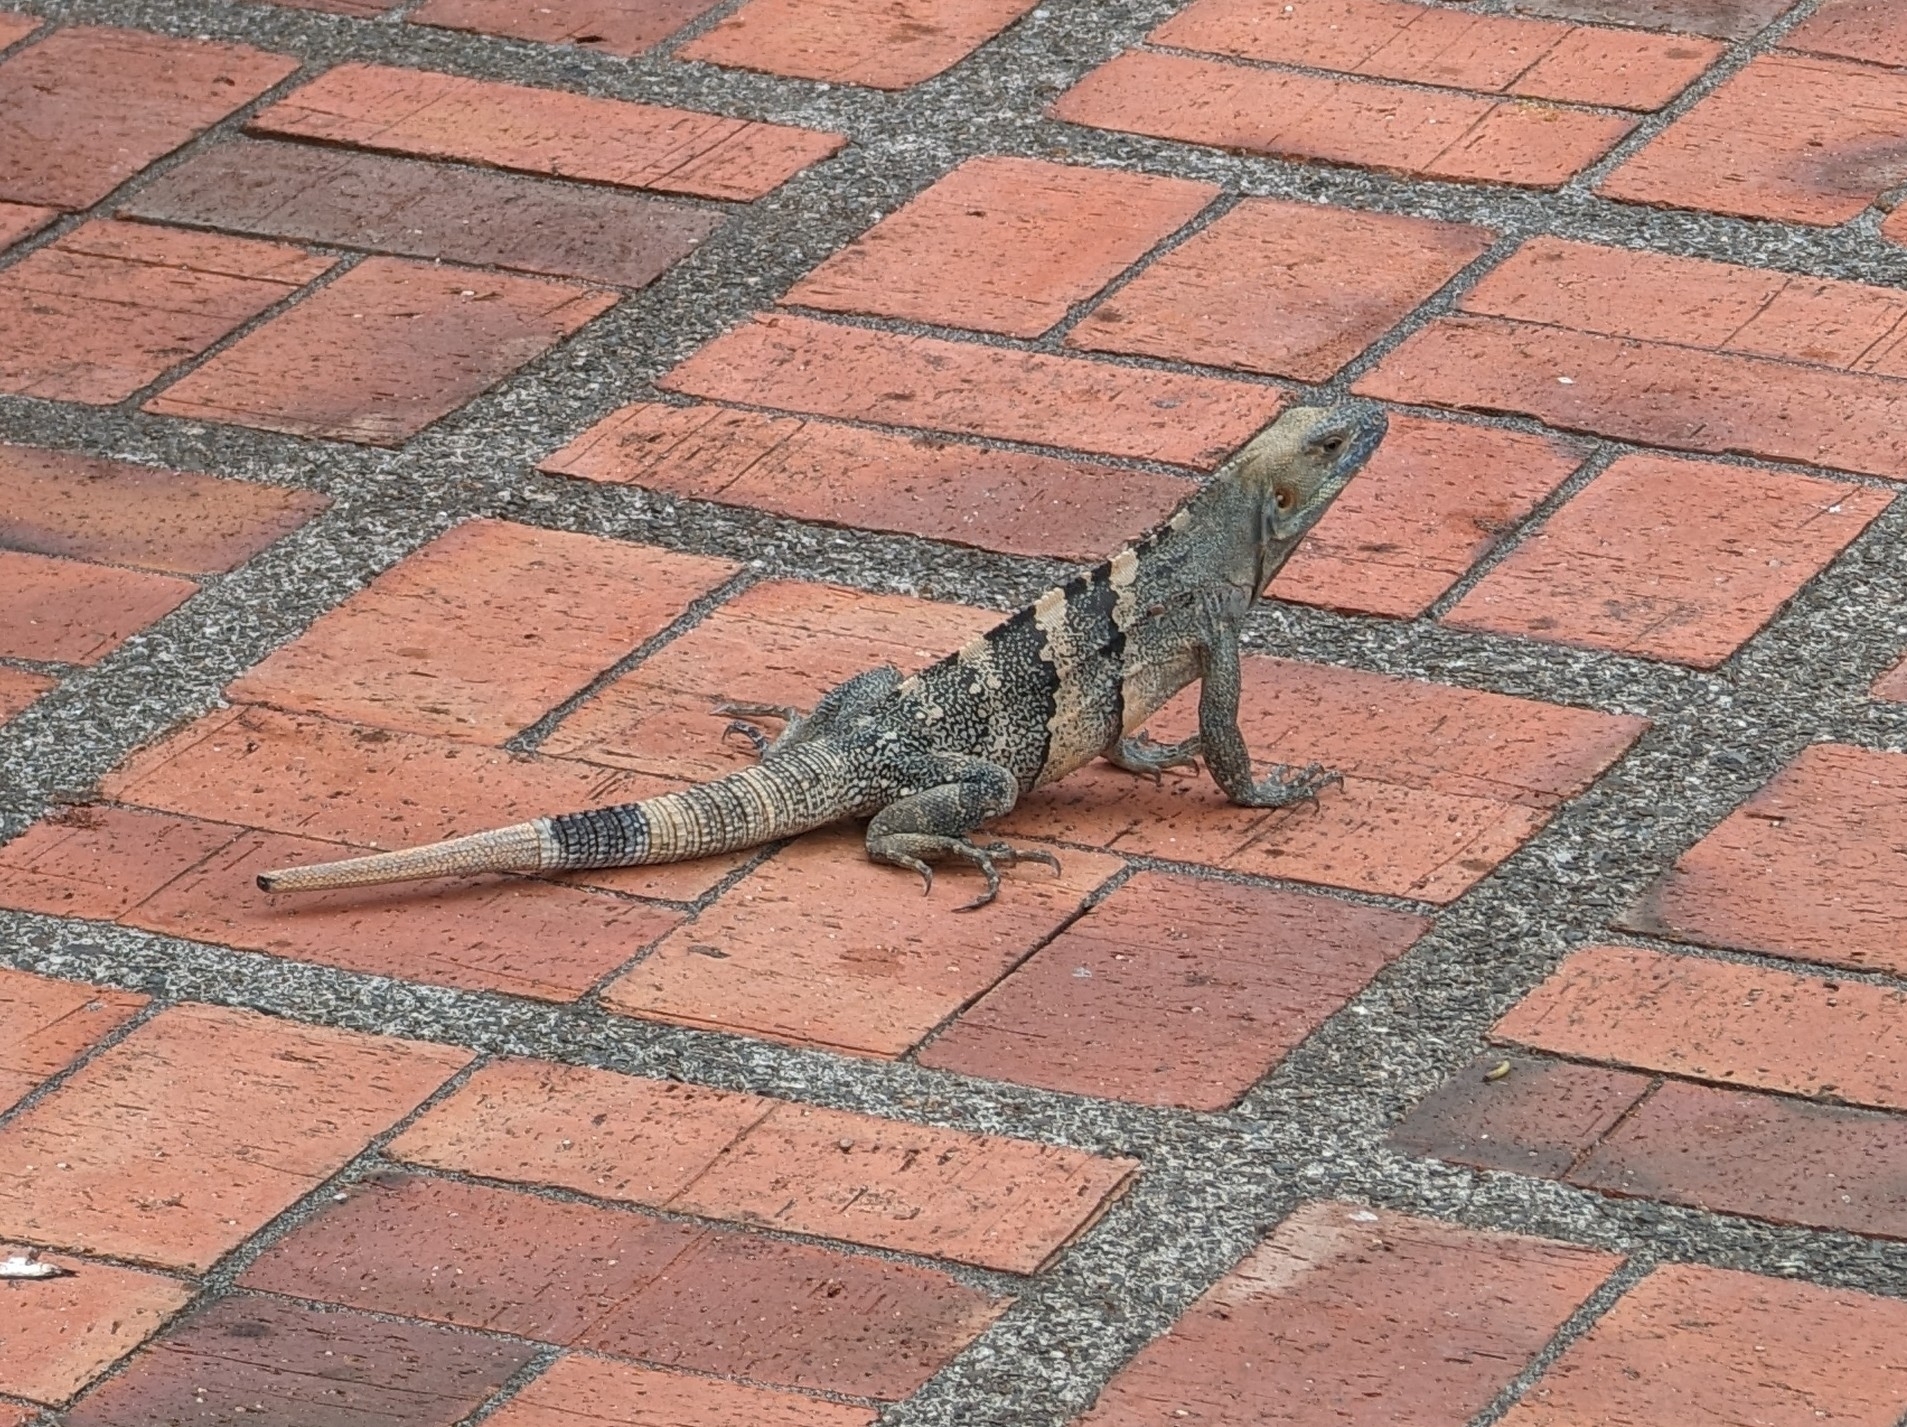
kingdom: Animalia
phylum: Chordata
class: Squamata
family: Iguanidae
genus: Ctenosaura
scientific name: Ctenosaura similis
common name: Black spiny-tailed iguana
